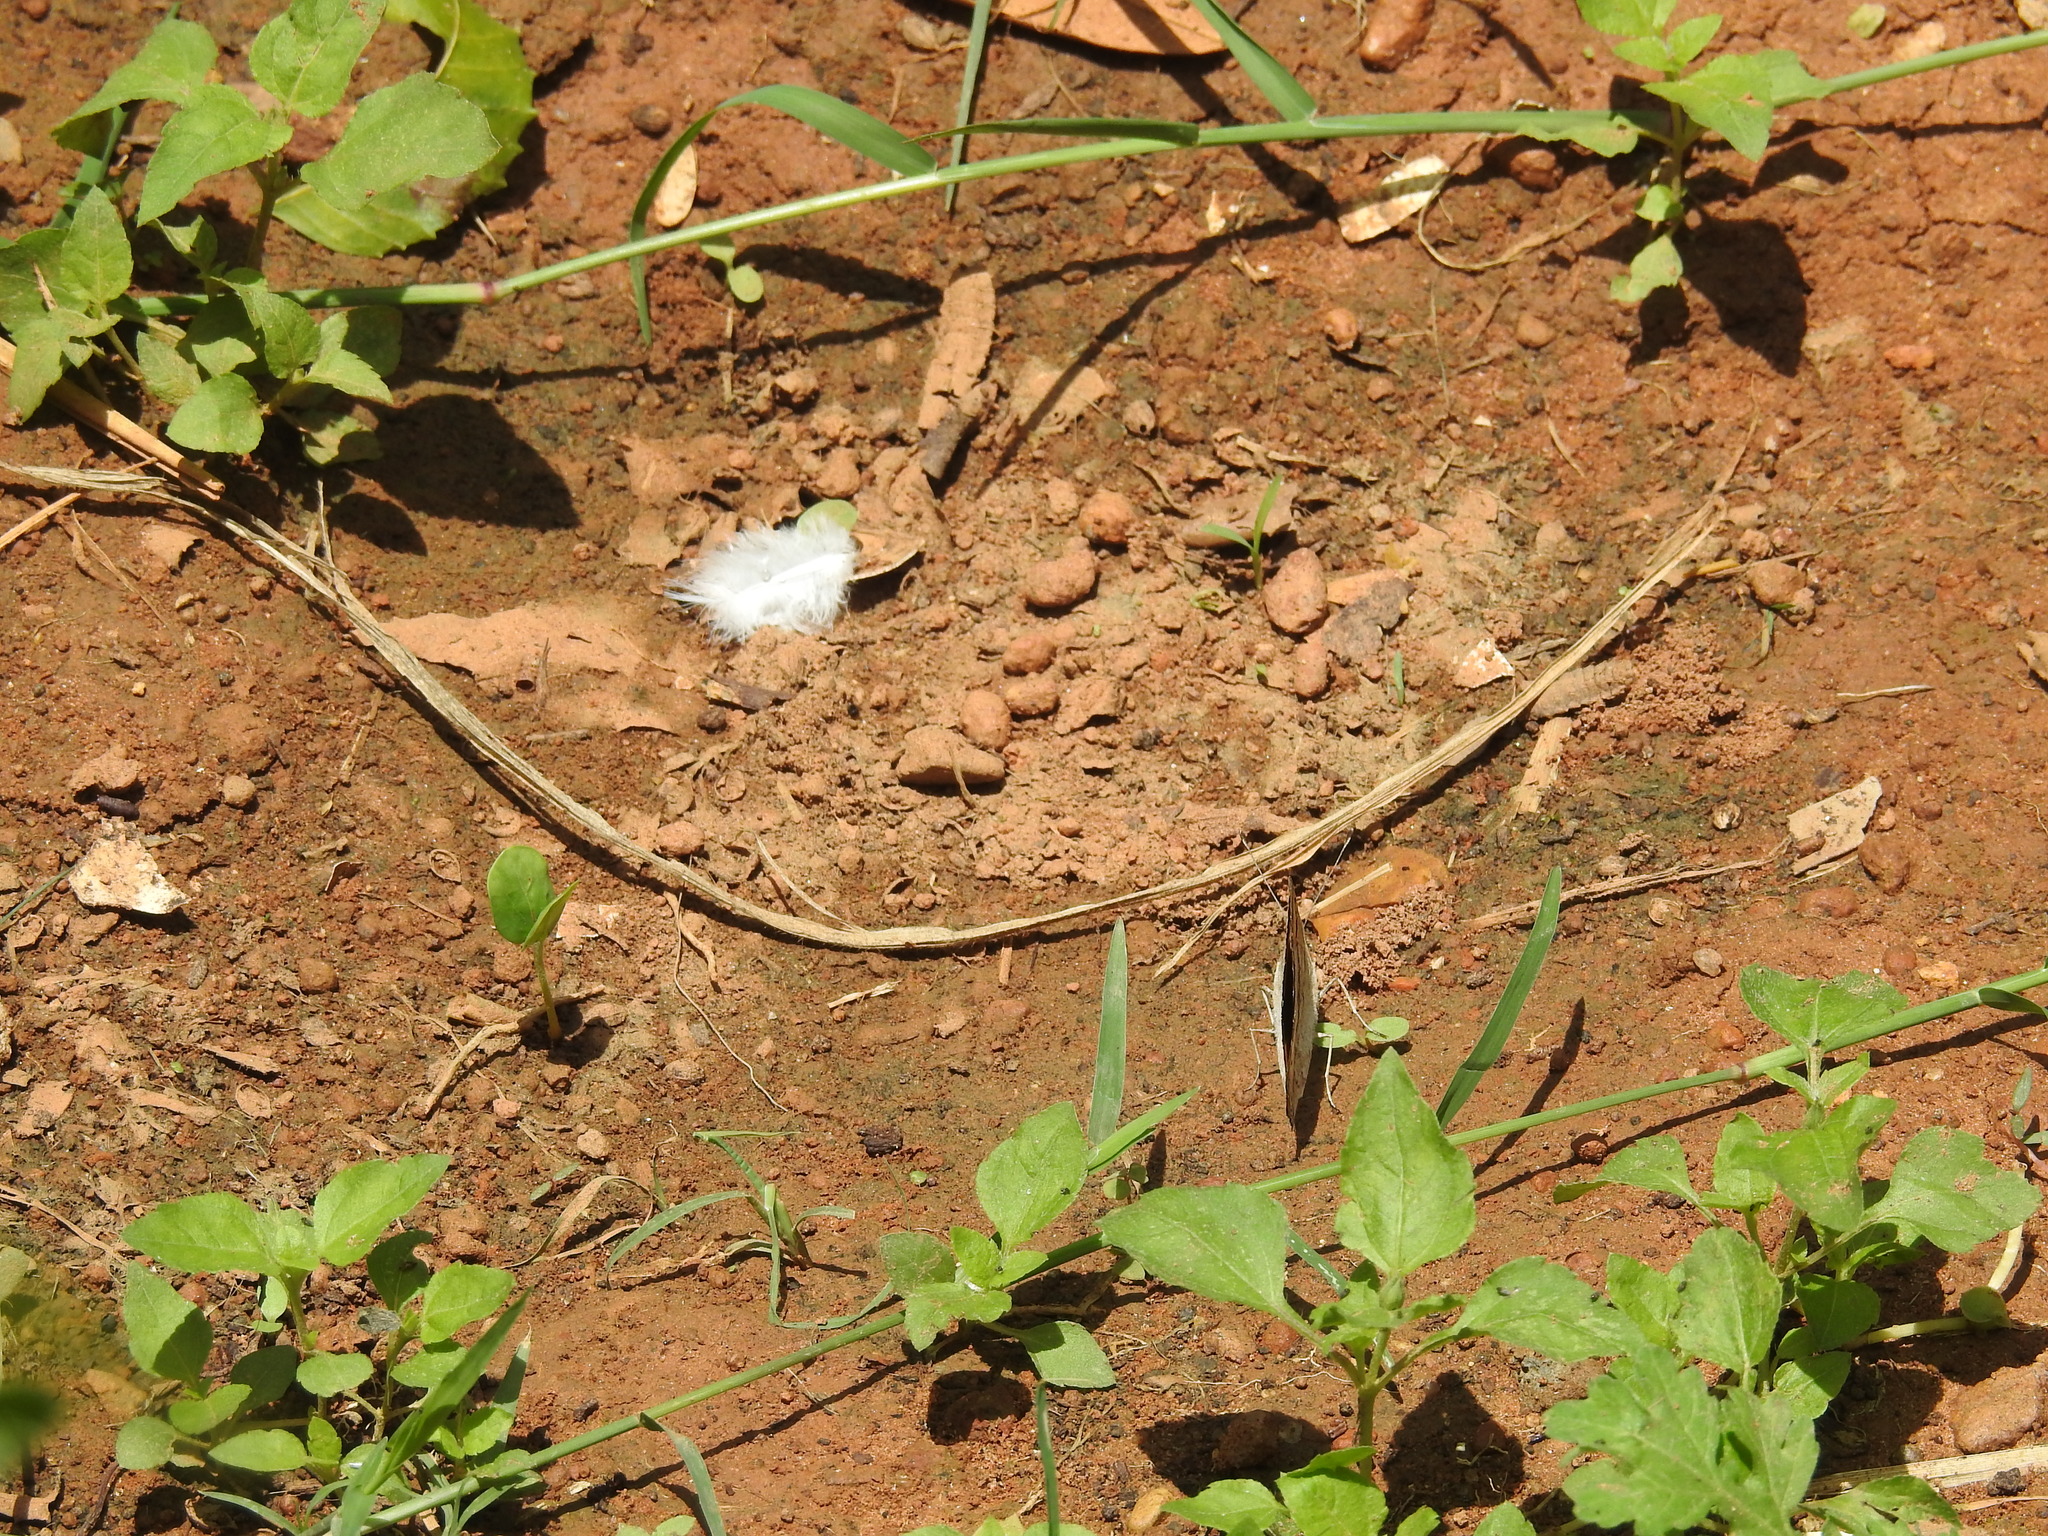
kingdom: Animalia
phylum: Arthropoda
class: Insecta
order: Lepidoptera
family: Nymphalidae
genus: Junonia
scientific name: Junonia hierta
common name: Yellow pansy
